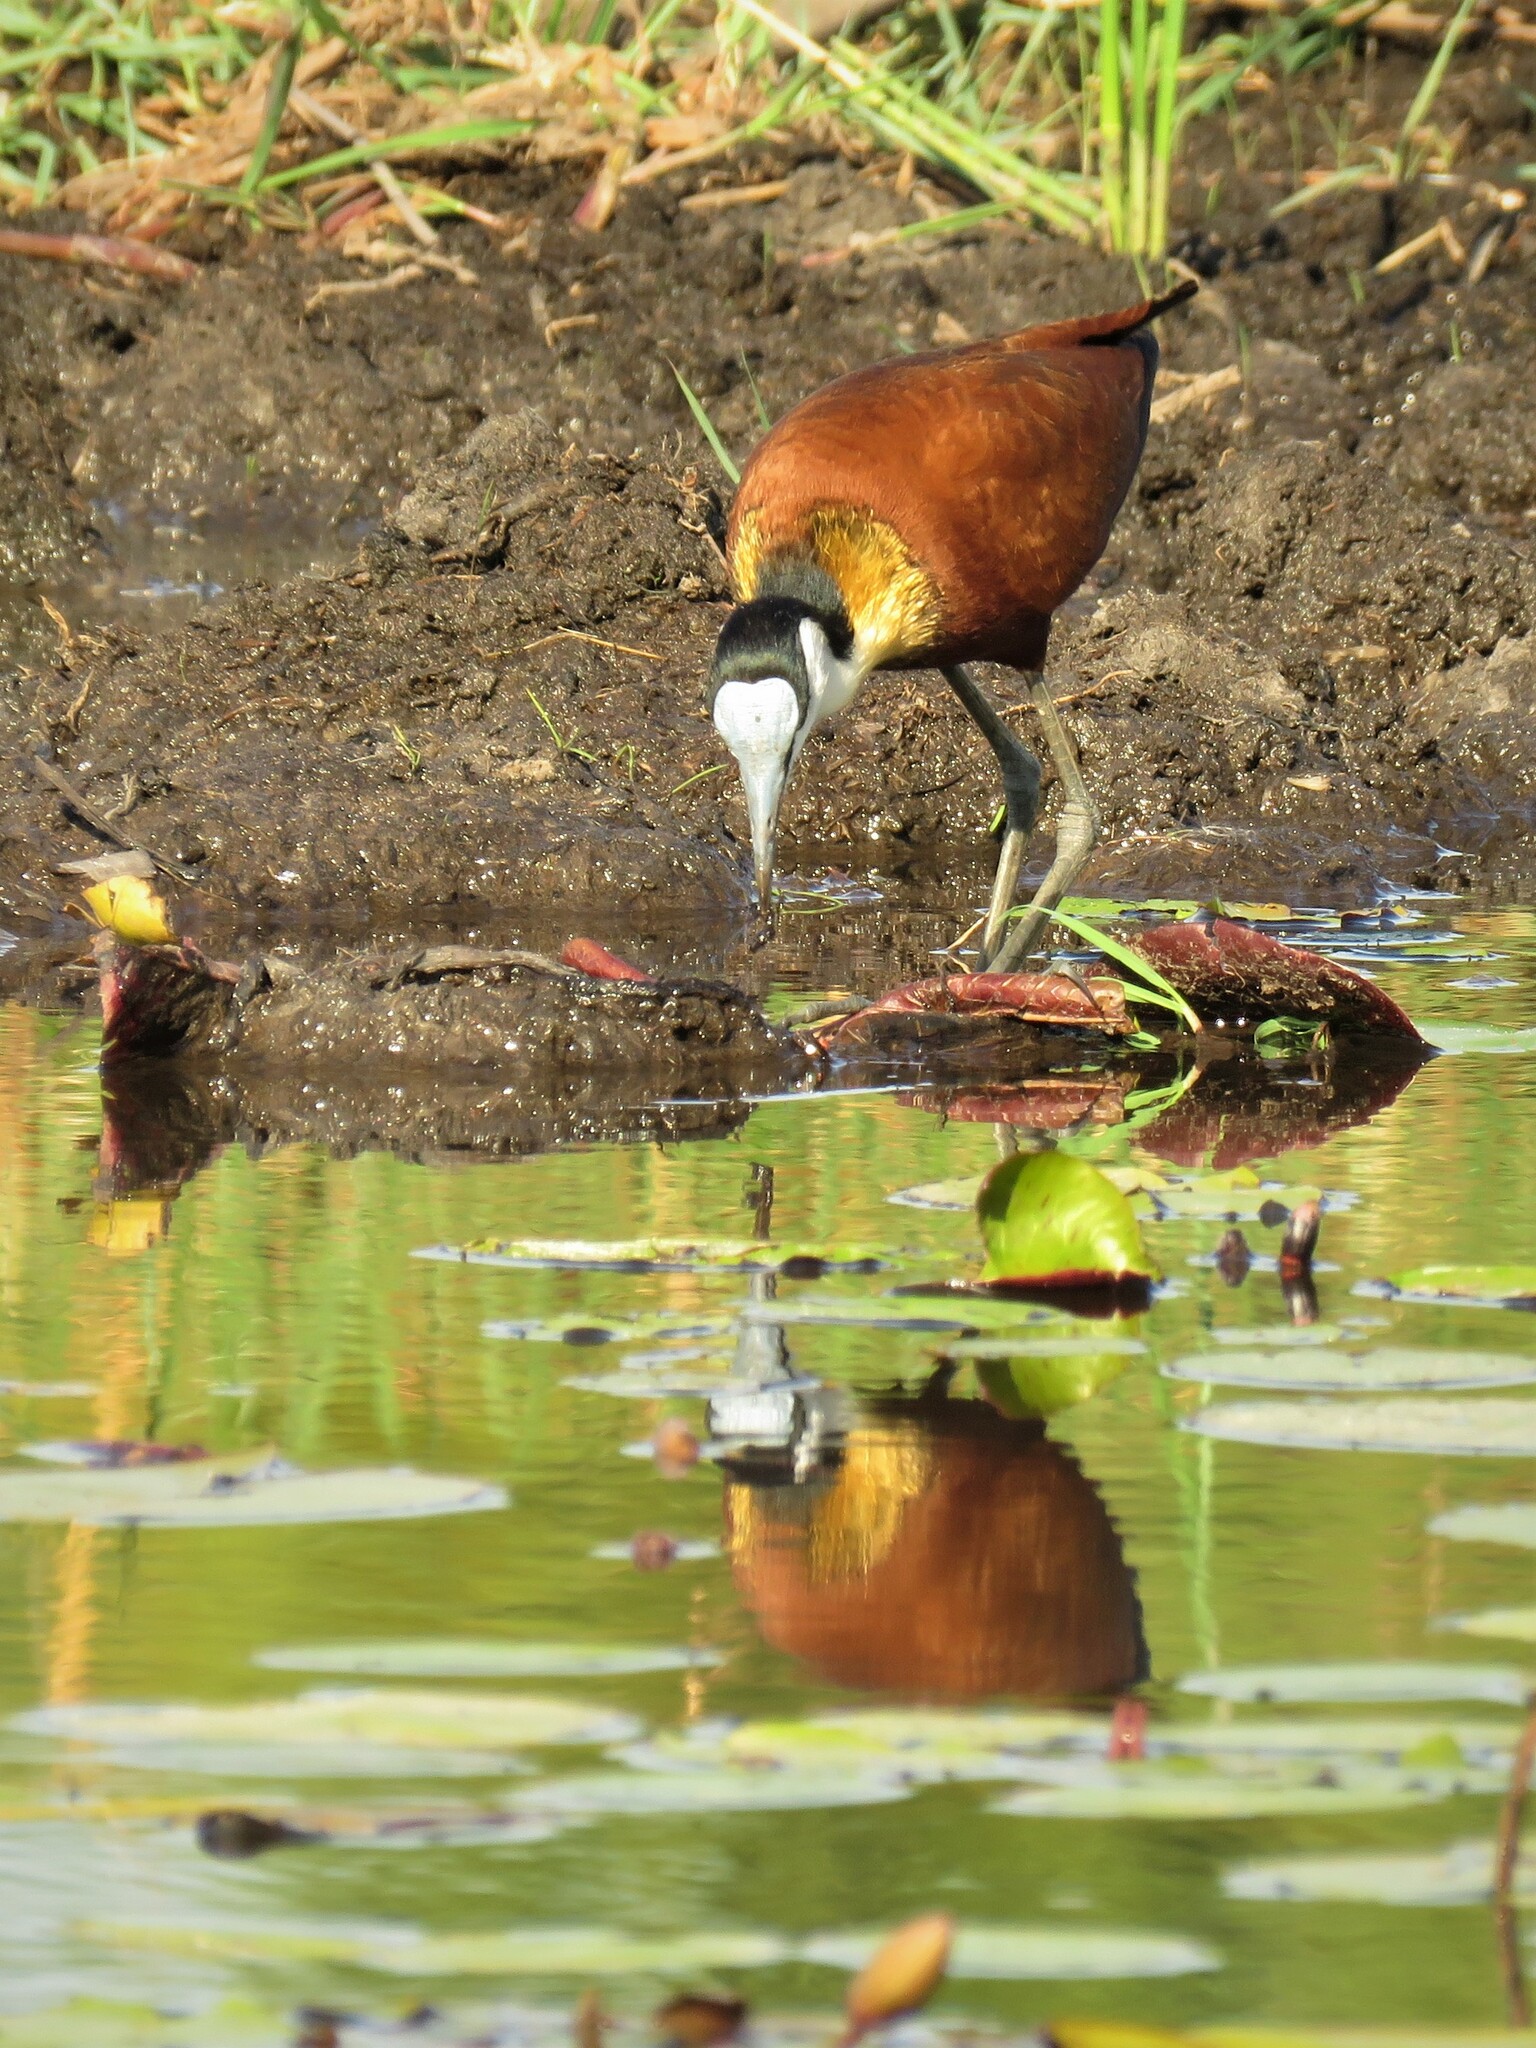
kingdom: Animalia
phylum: Chordata
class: Aves
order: Charadriiformes
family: Jacanidae
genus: Actophilornis
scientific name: Actophilornis africanus
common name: African jacana
